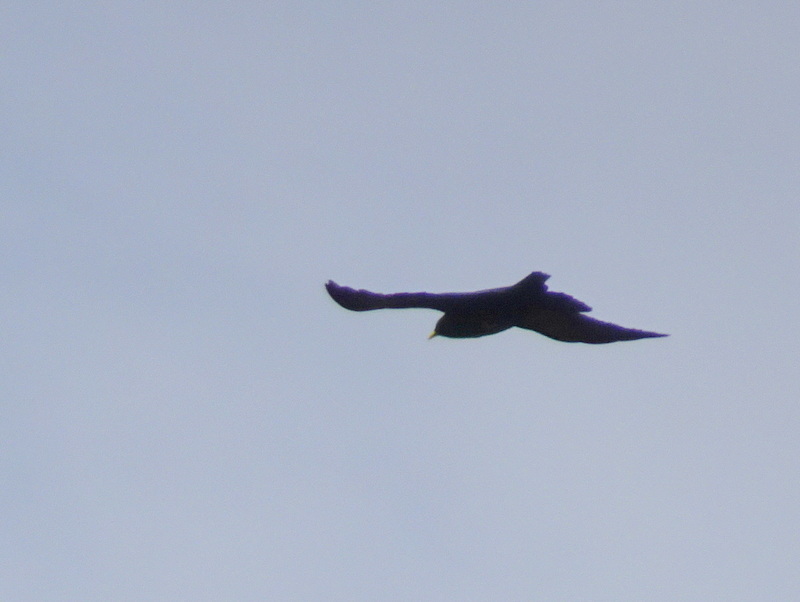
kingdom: Animalia
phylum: Chordata
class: Aves
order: Passeriformes
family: Corvidae
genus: Pyrrhocorax
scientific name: Pyrrhocorax graculus
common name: Alpine chough
